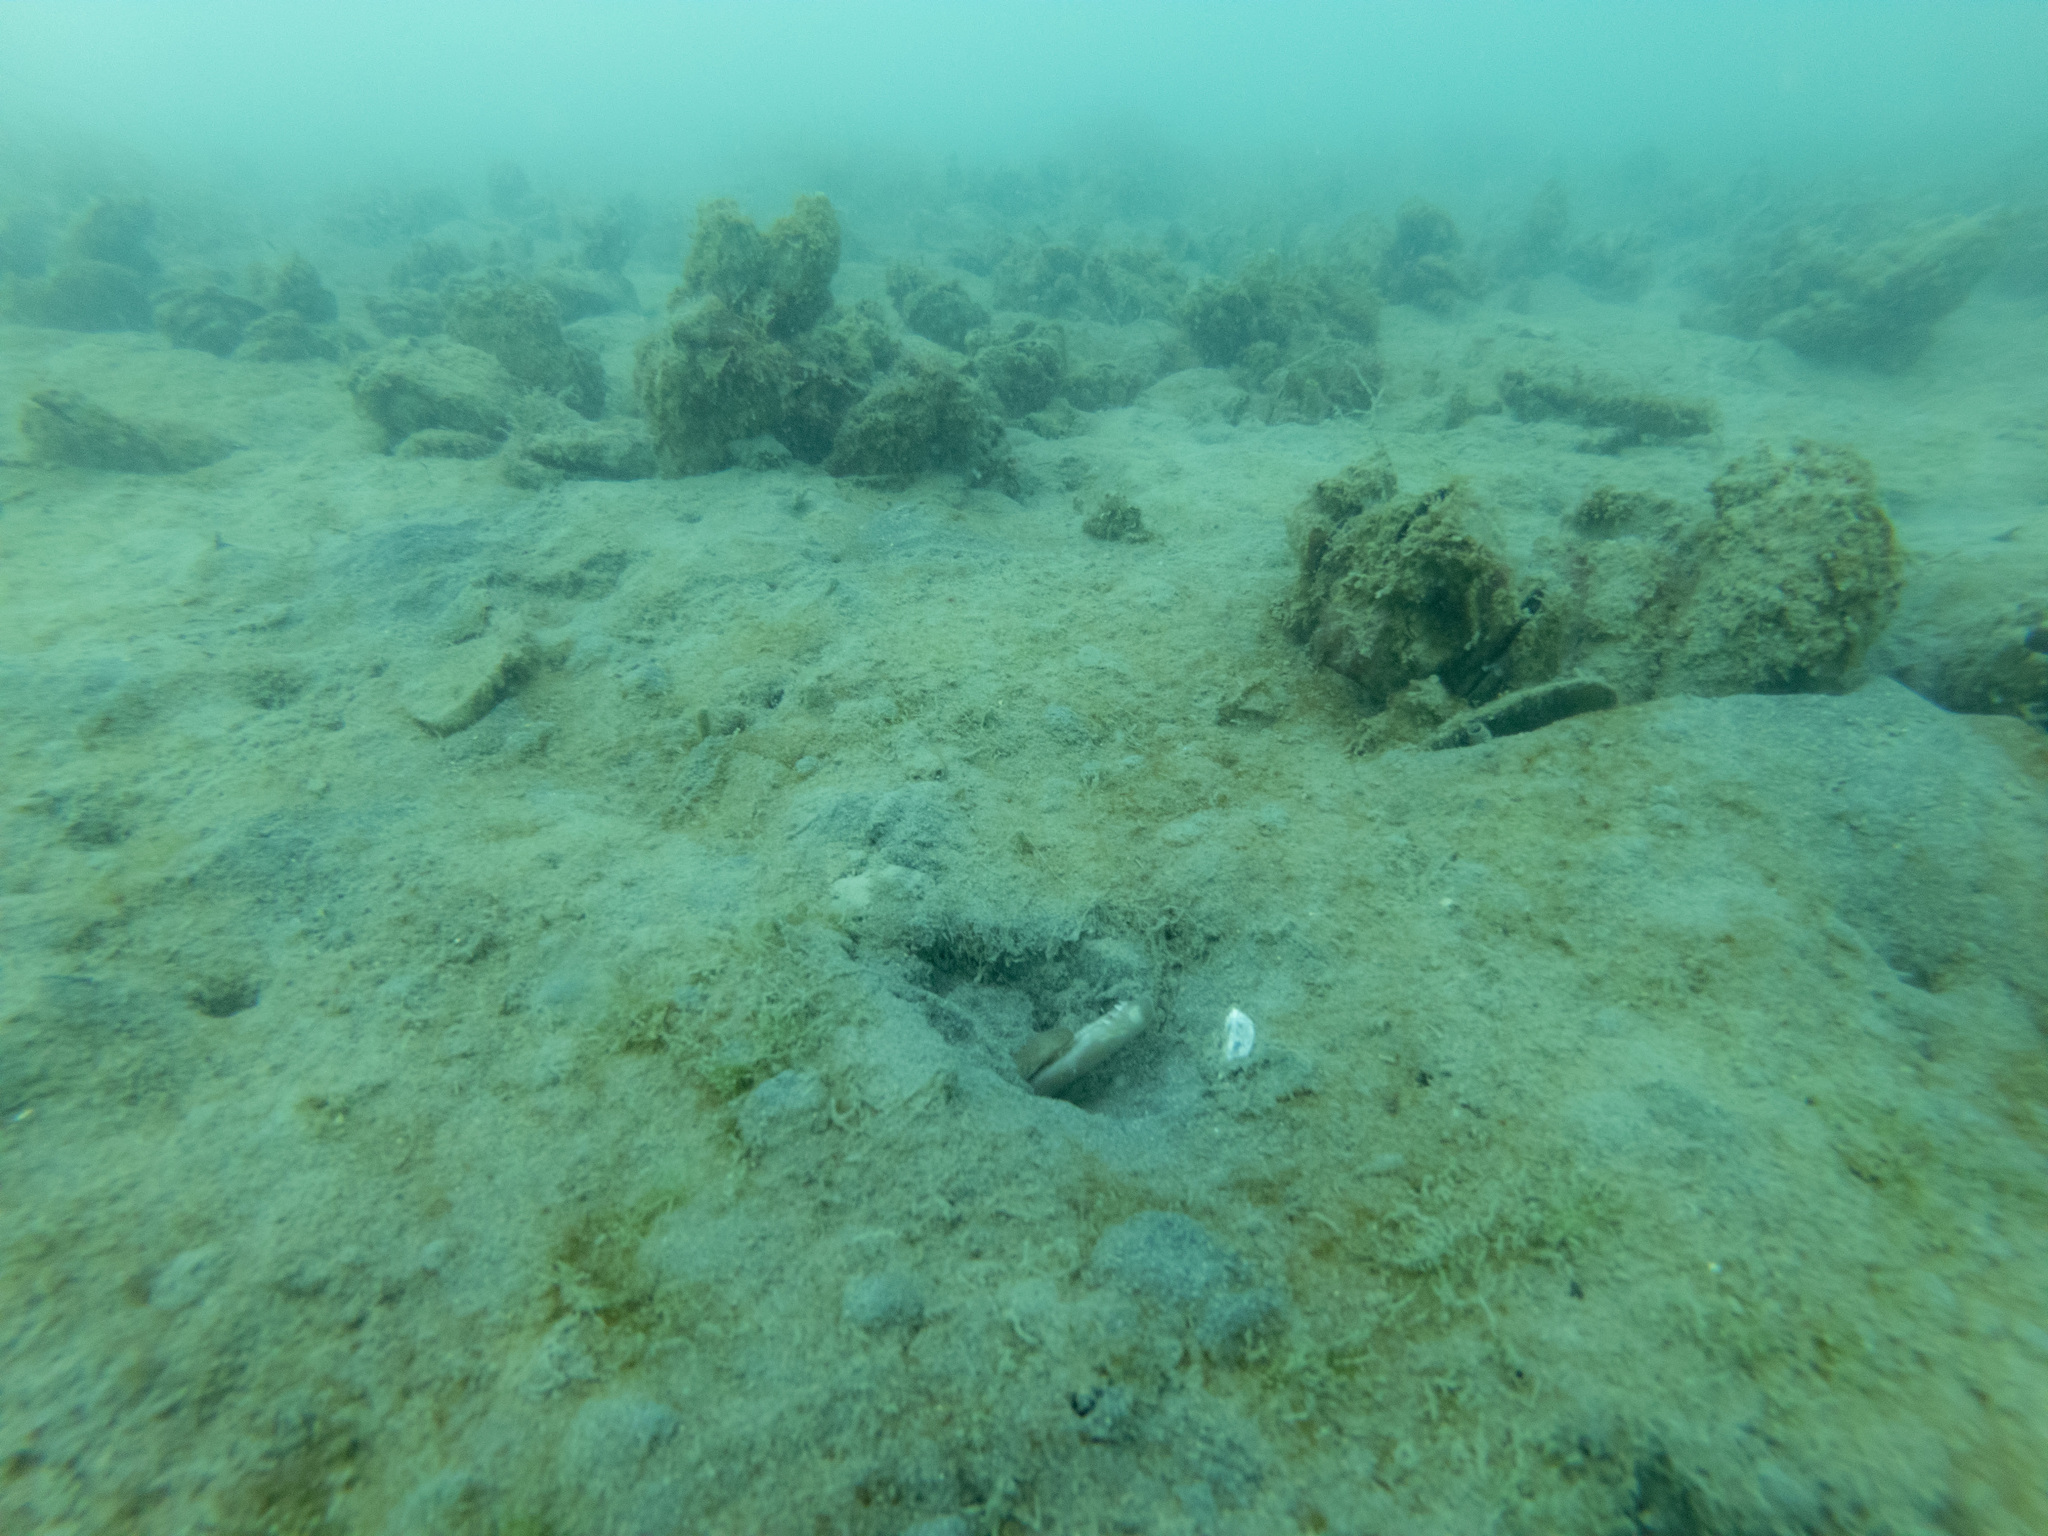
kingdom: Animalia
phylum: Chordata
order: Anguilliformes
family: Ophichthidae
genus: Ophisurus
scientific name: Ophisurus serpens
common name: Serpent eel
